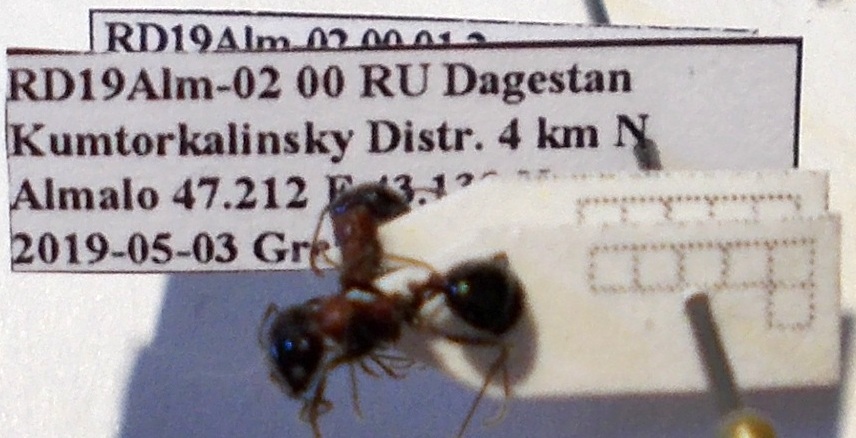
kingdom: Animalia
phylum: Arthropoda
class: Insecta
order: Hymenoptera
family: Formicidae
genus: Messor
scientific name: Messor denticulatus
